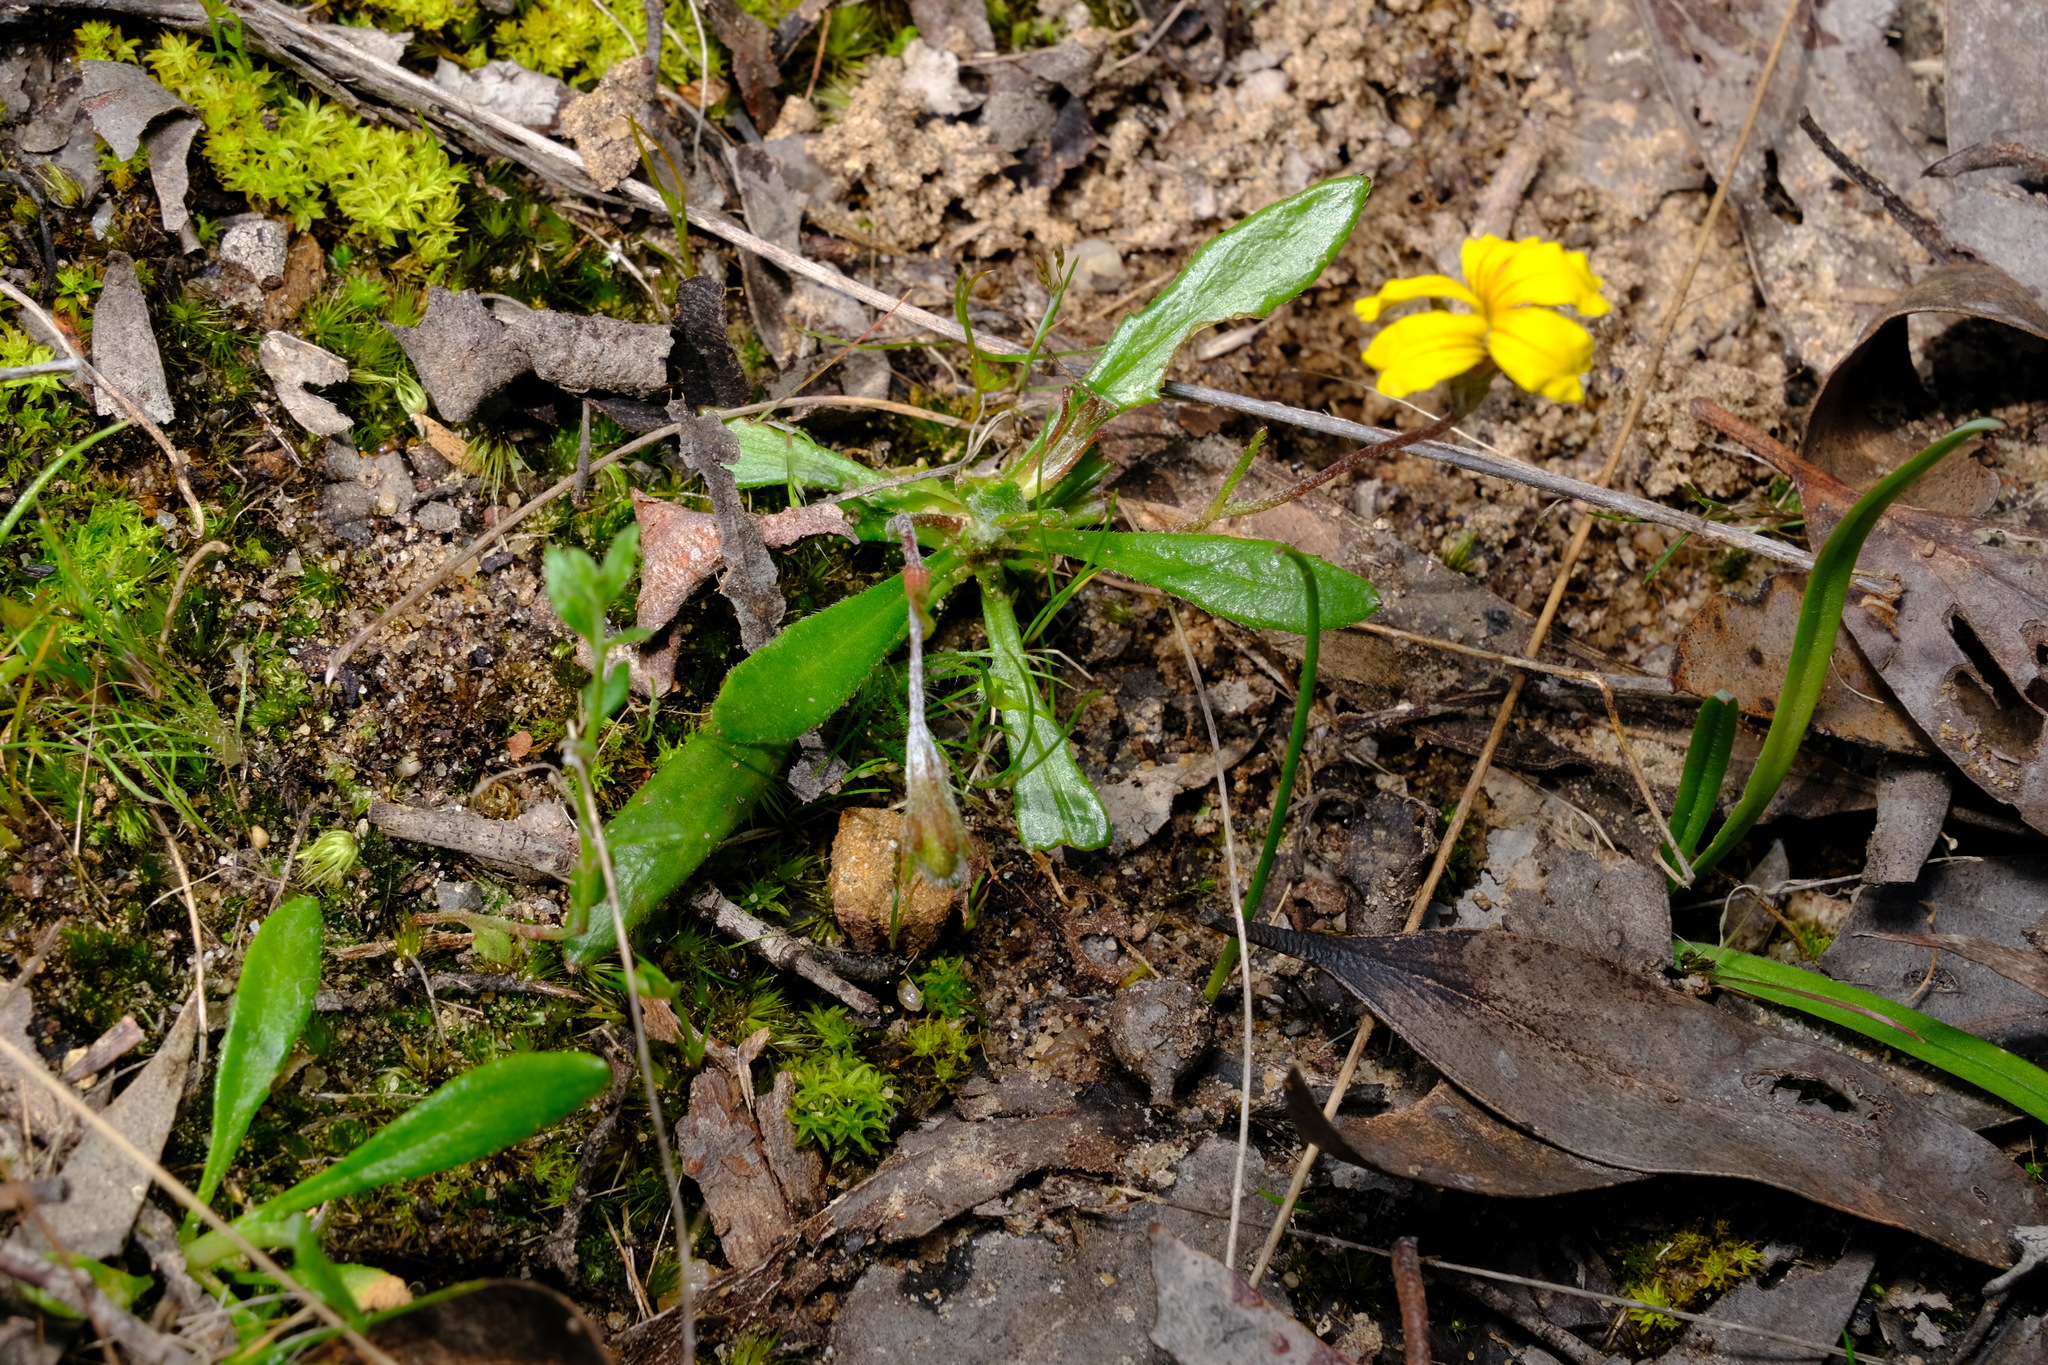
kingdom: Plantae
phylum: Tracheophyta
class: Magnoliopsida
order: Asterales
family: Goodeniaceae
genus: Goodenia
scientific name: Goodenia geniculata
